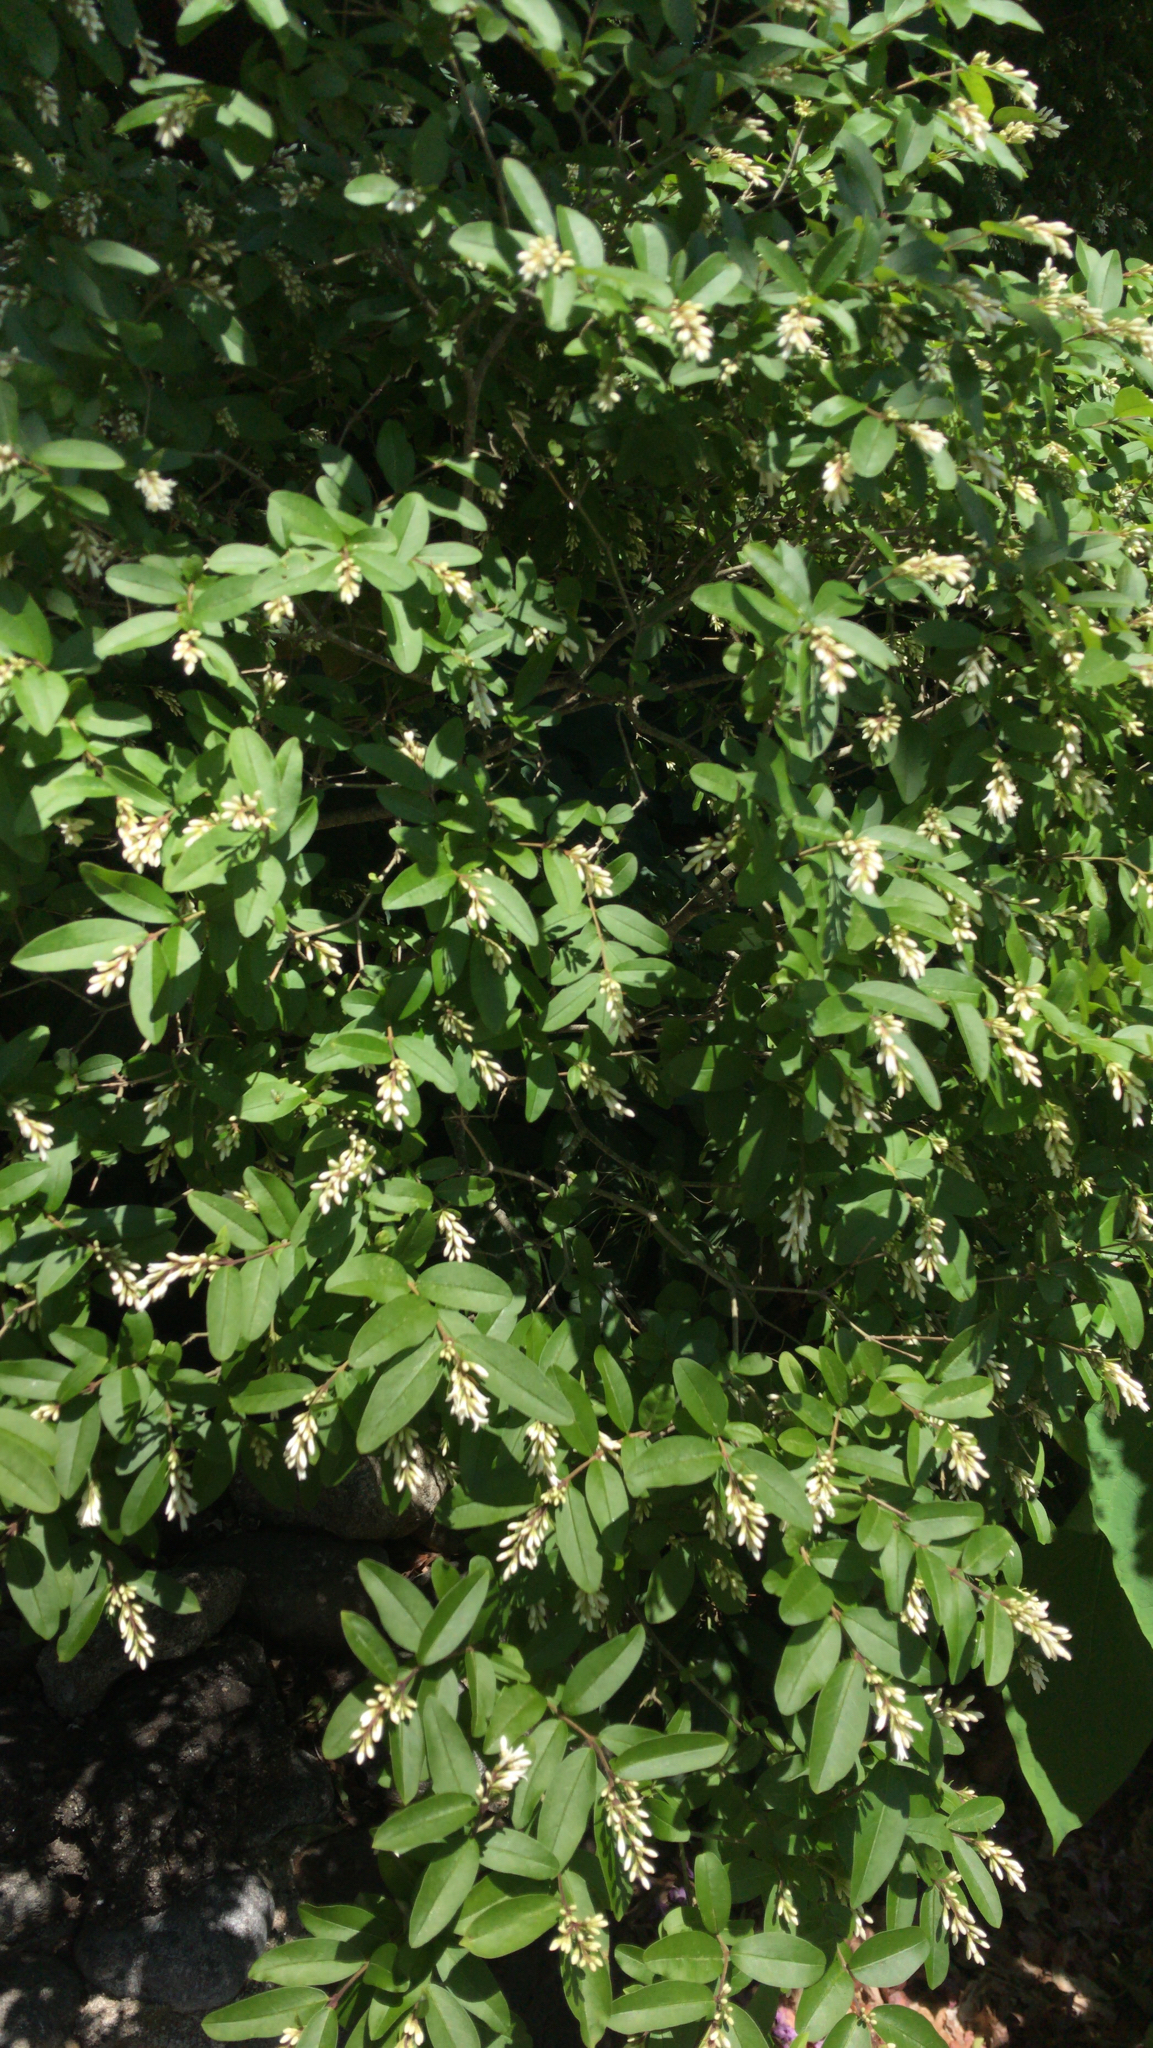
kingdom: Plantae
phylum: Tracheophyta
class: Magnoliopsida
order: Lamiales
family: Oleaceae
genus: Ligustrum
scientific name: Ligustrum obtusifolium
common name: Border privet
